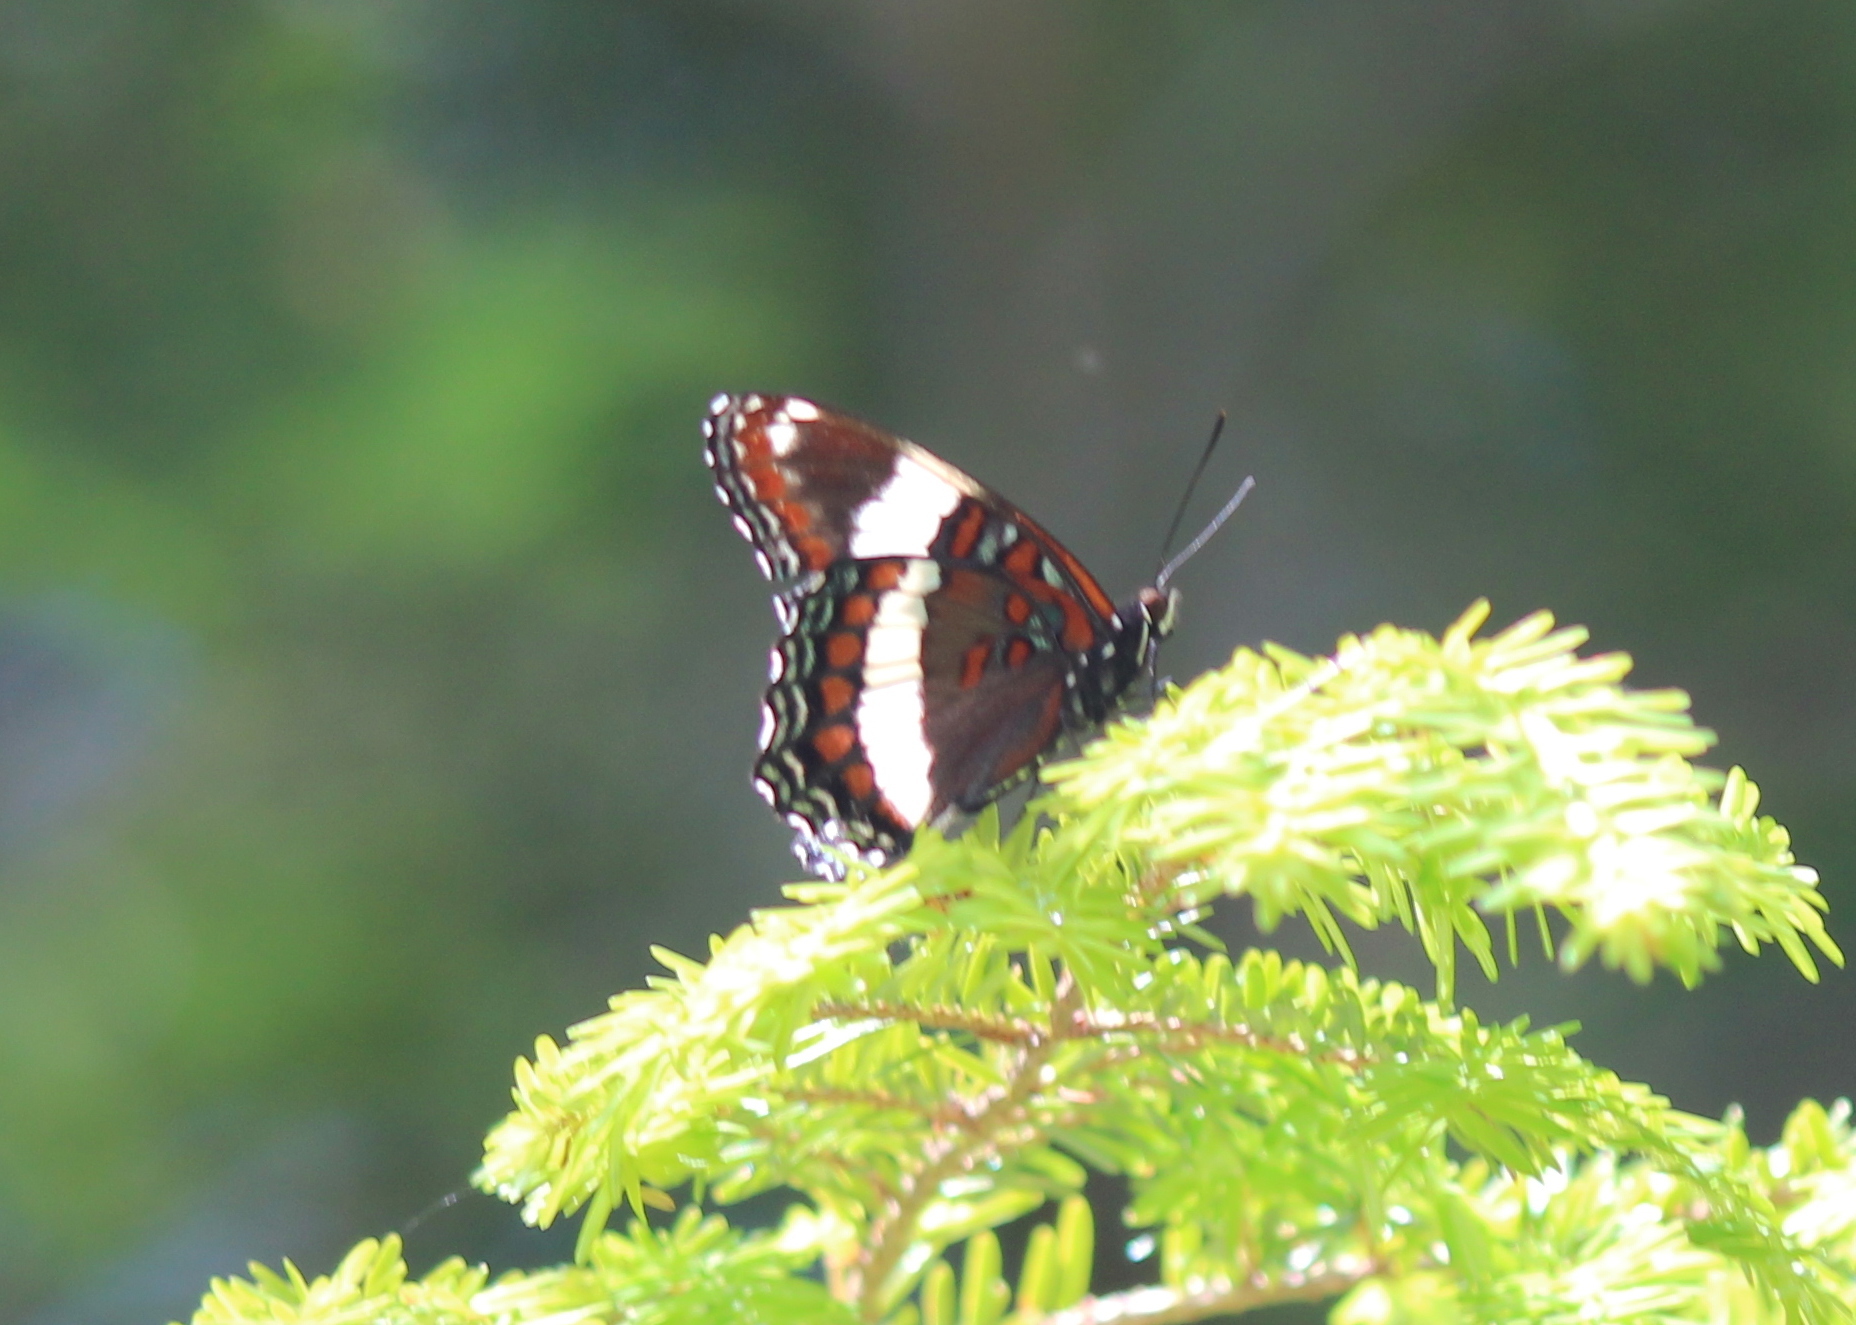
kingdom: Animalia
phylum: Arthropoda
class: Insecta
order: Lepidoptera
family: Nymphalidae
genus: Limenitis
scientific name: Limenitis arthemis
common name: Red-spotted admiral
